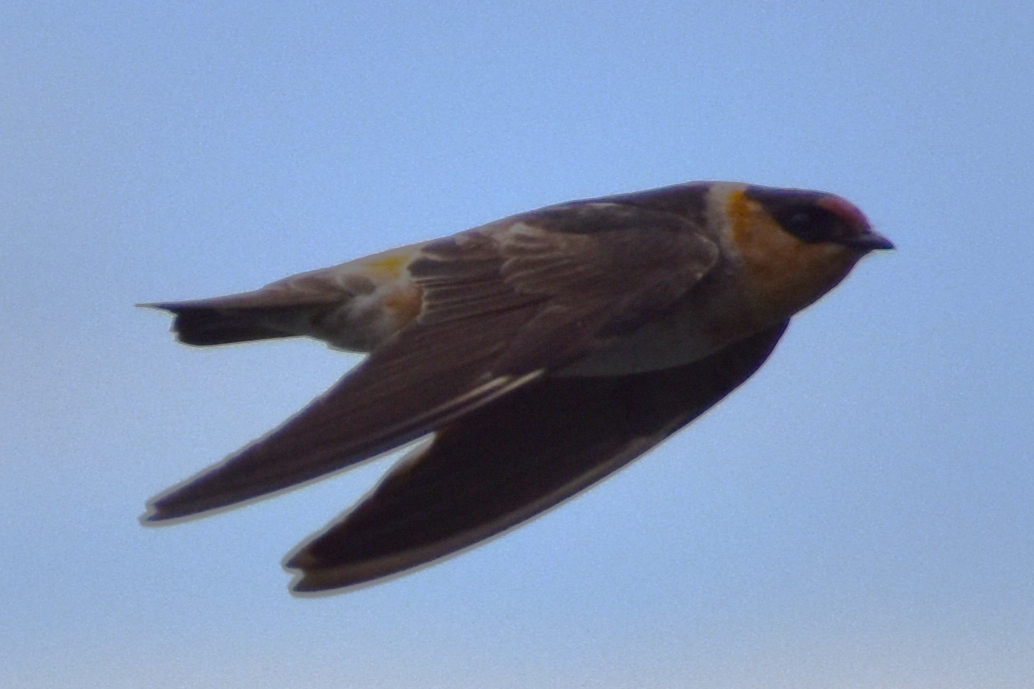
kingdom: Animalia
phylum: Chordata
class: Aves
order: Passeriformes
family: Hirundinidae
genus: Petrochelidon
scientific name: Petrochelidon fulva
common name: Cave swallow
